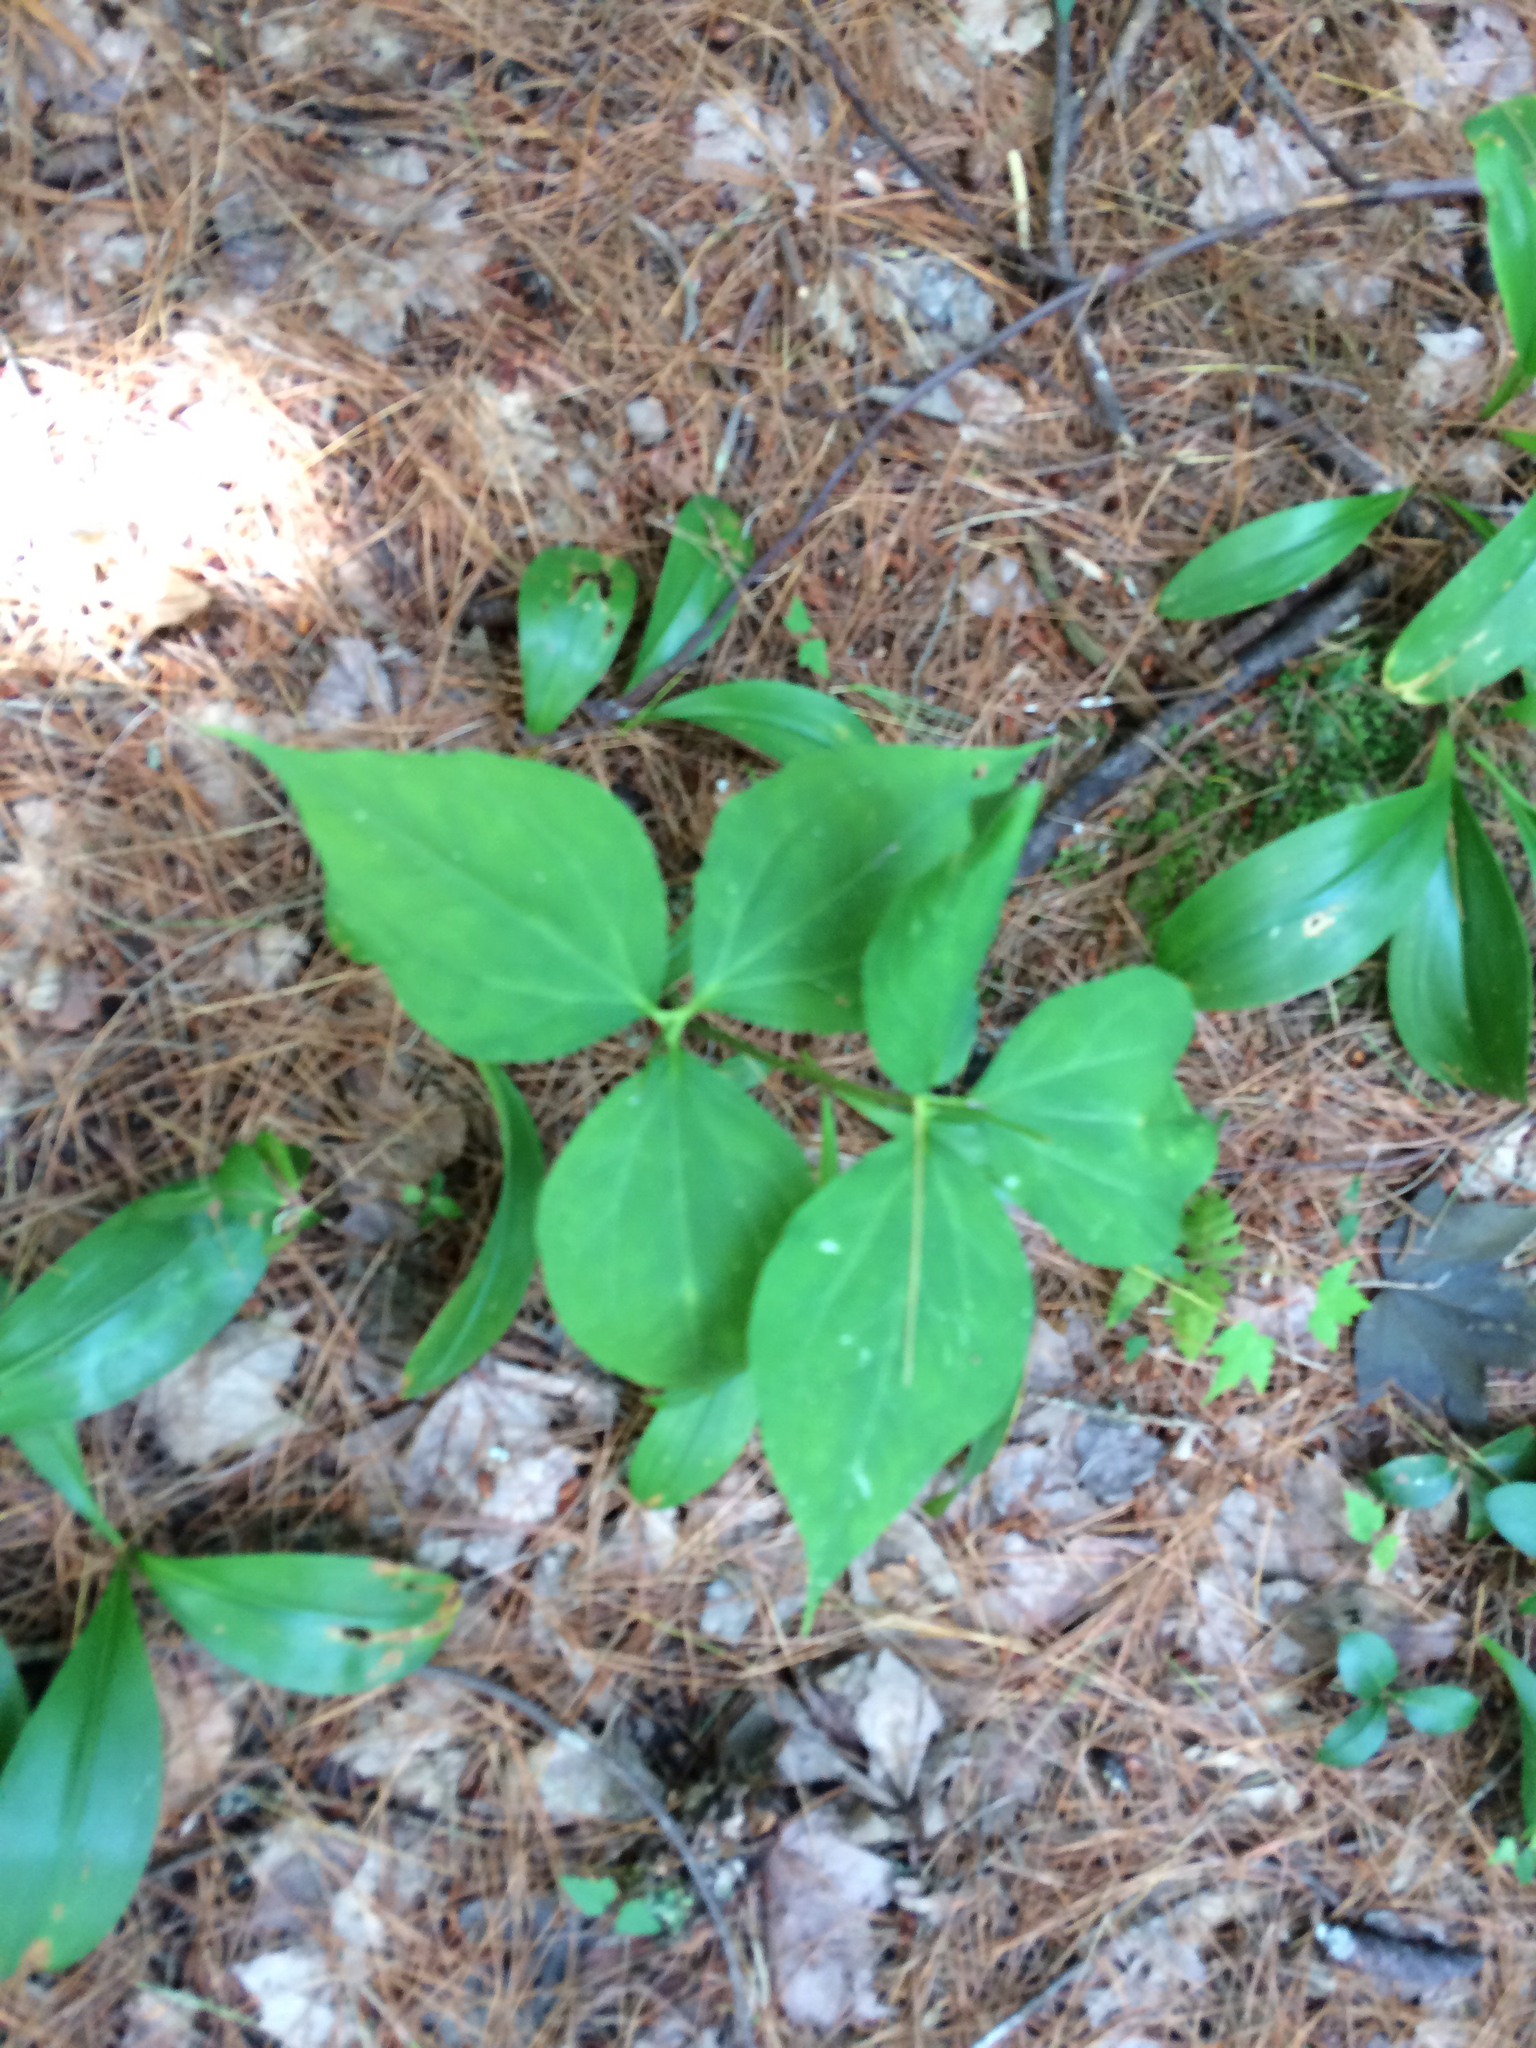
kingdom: Plantae
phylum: Tracheophyta
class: Liliopsida
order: Liliales
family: Melanthiaceae
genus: Trillium
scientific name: Trillium undulatum
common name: Paint trillium
